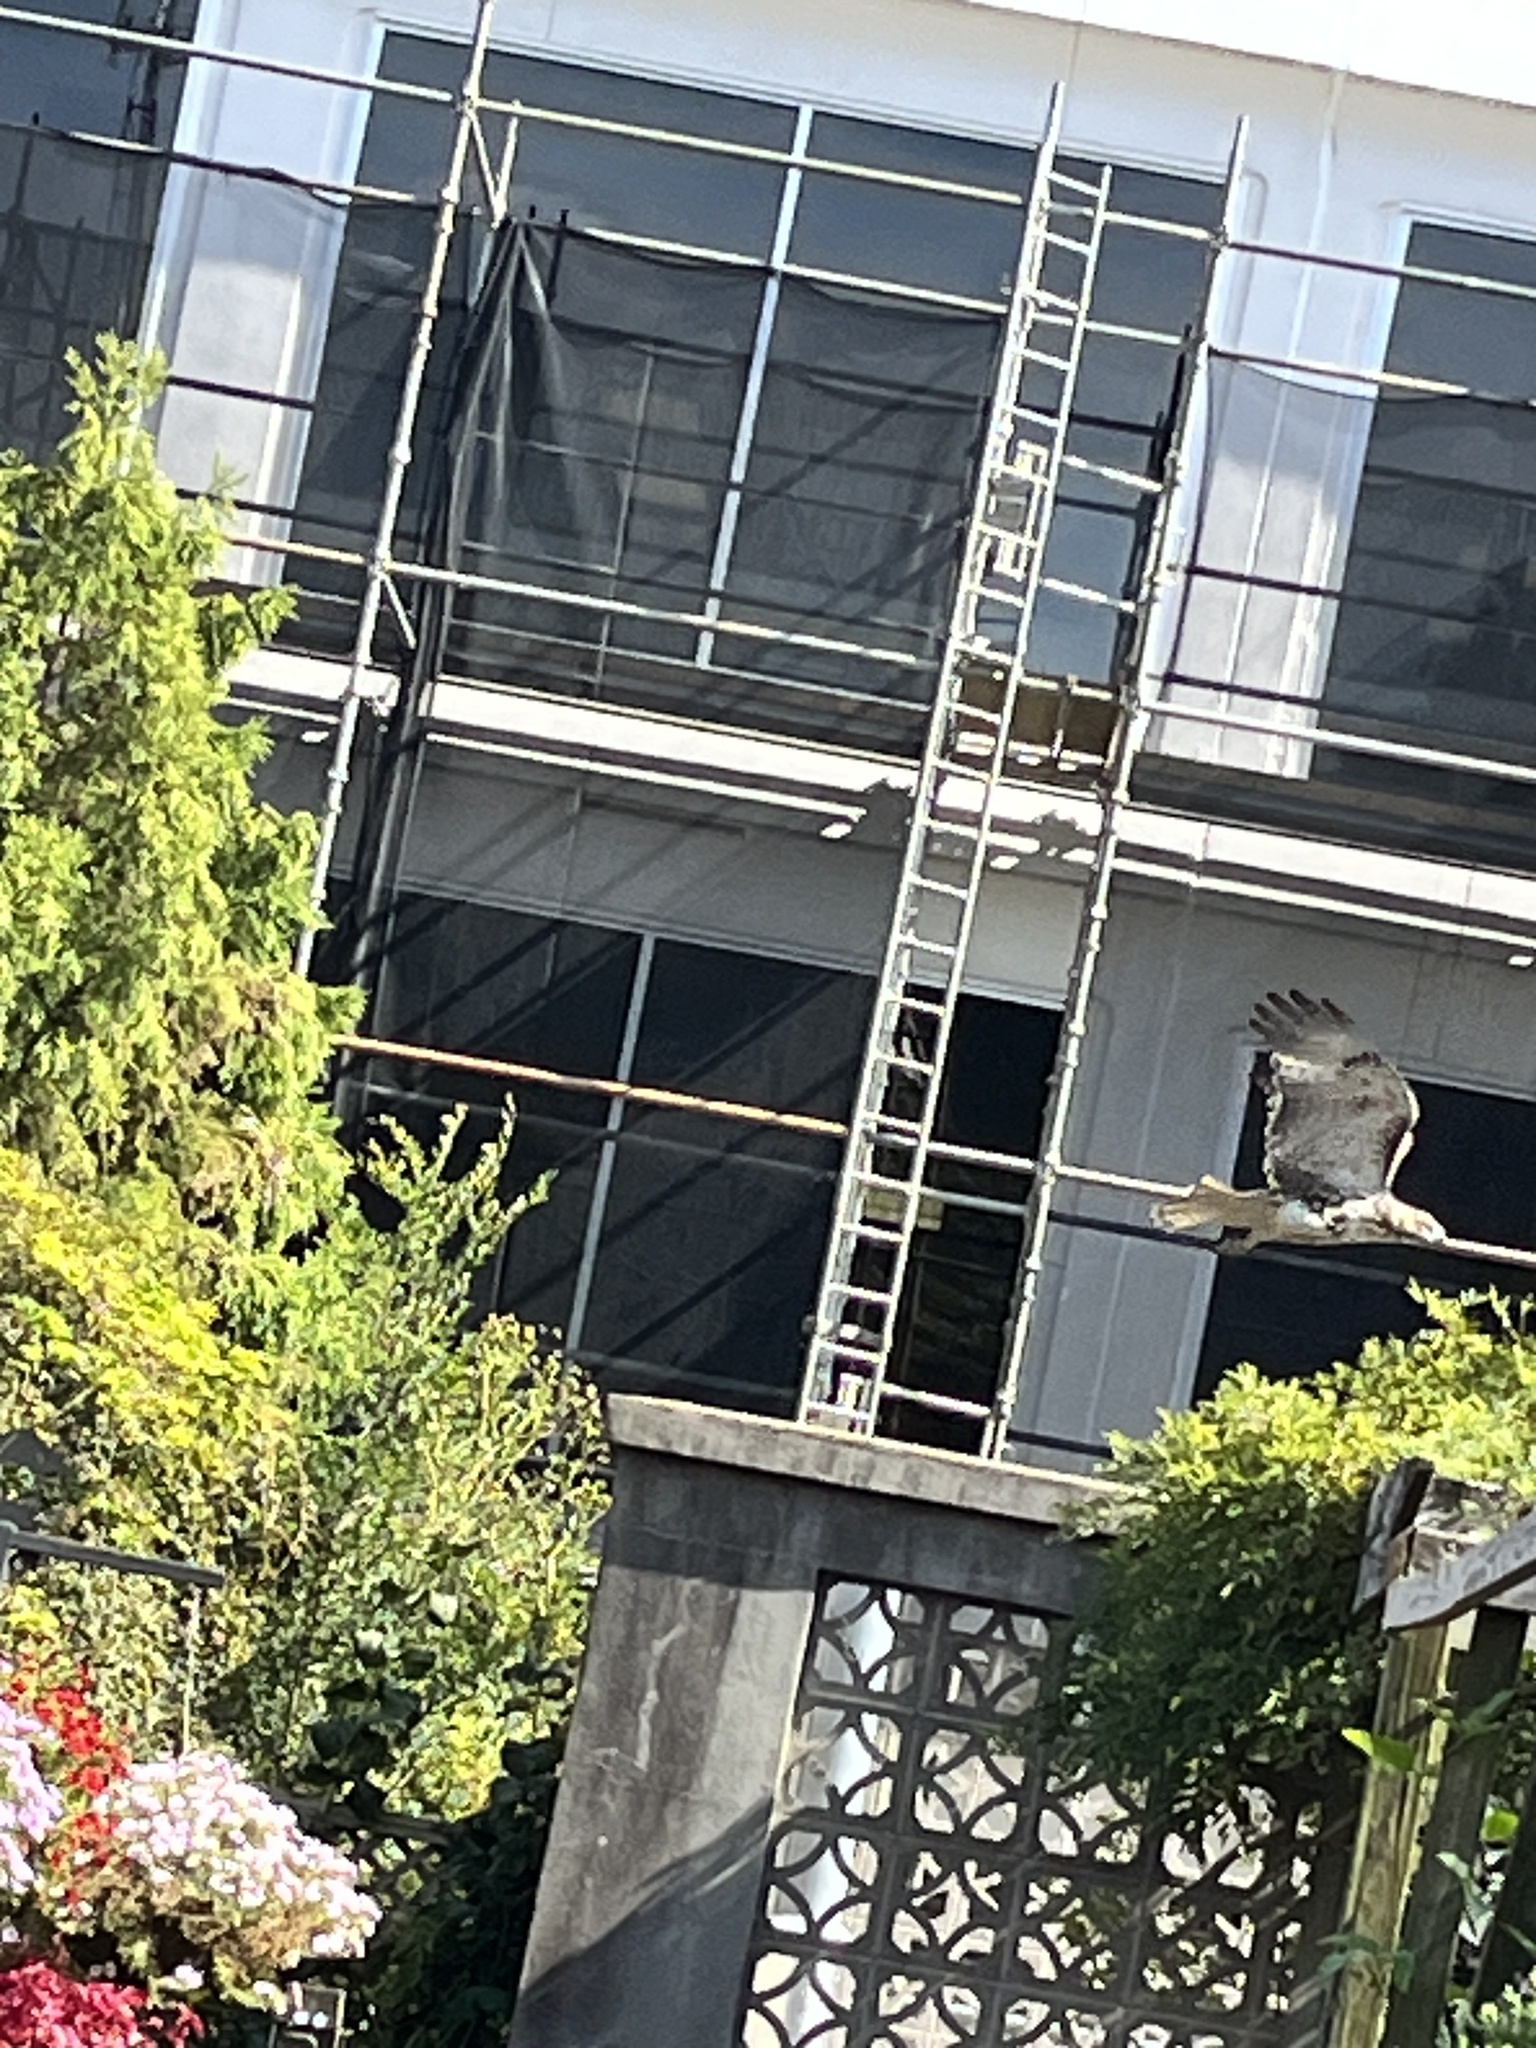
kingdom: Animalia
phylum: Chordata
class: Aves
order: Accipitriformes
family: Accipitridae
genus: Buteo
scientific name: Buteo jamaicensis
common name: Red-tailed hawk
